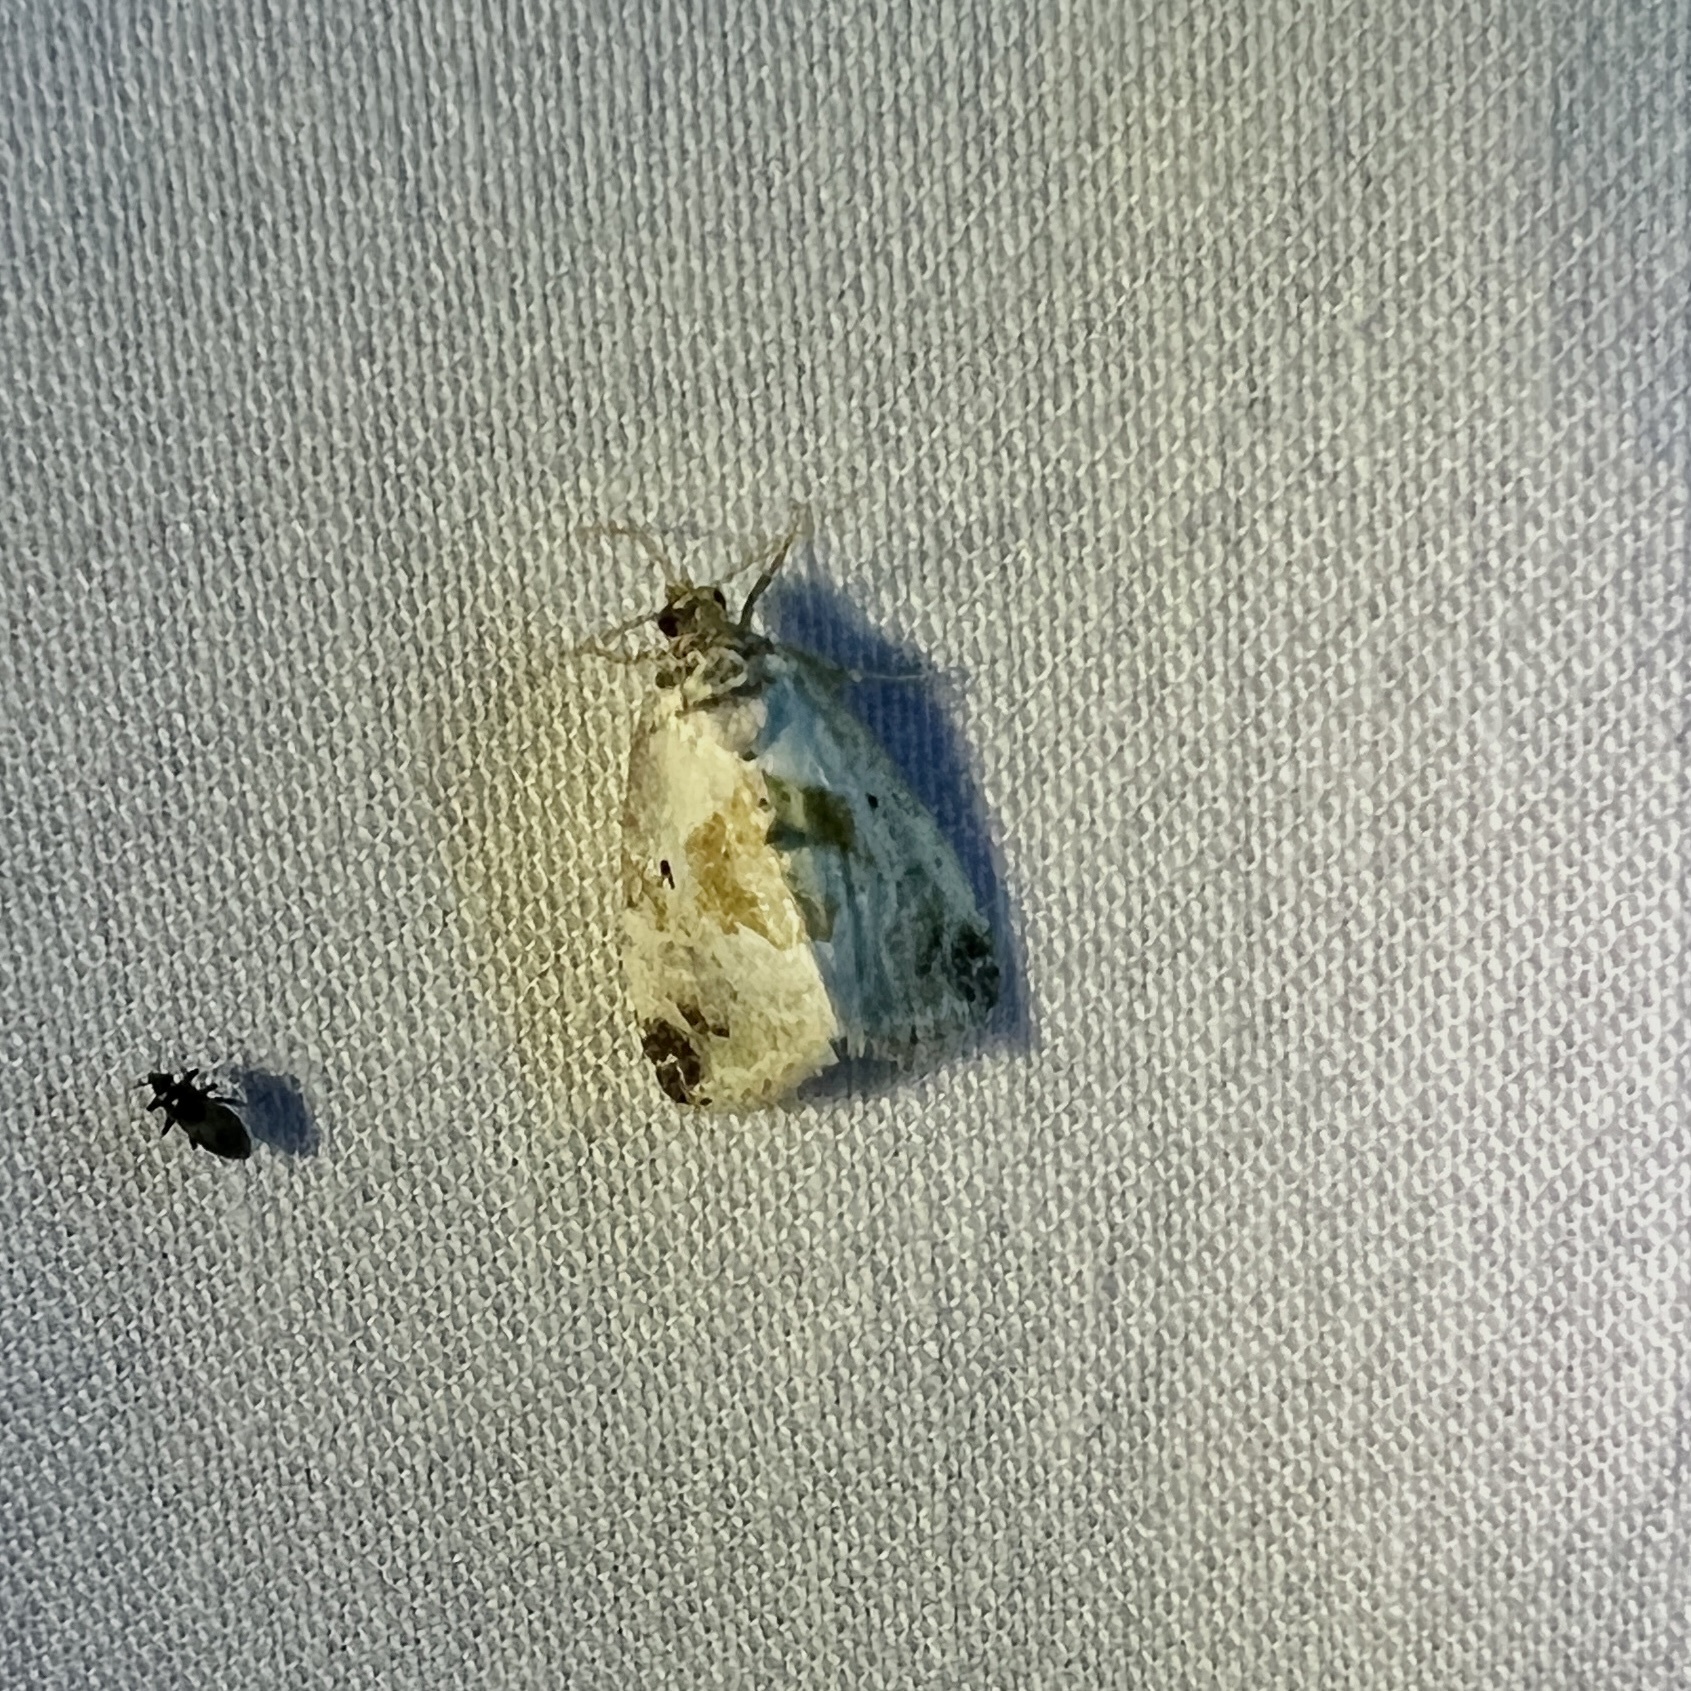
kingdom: Animalia
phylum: Arthropoda
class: Insecta
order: Lepidoptera
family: Noctuidae
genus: Maliattha
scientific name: Maliattha synochitis
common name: Black-dotted glyph
